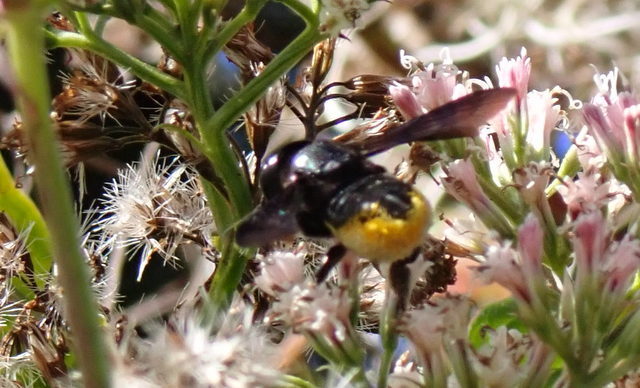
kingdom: Animalia
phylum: Arthropoda
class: Insecta
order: Hymenoptera
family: Megachilidae
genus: Megachile
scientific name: Megachile xylocopoides
